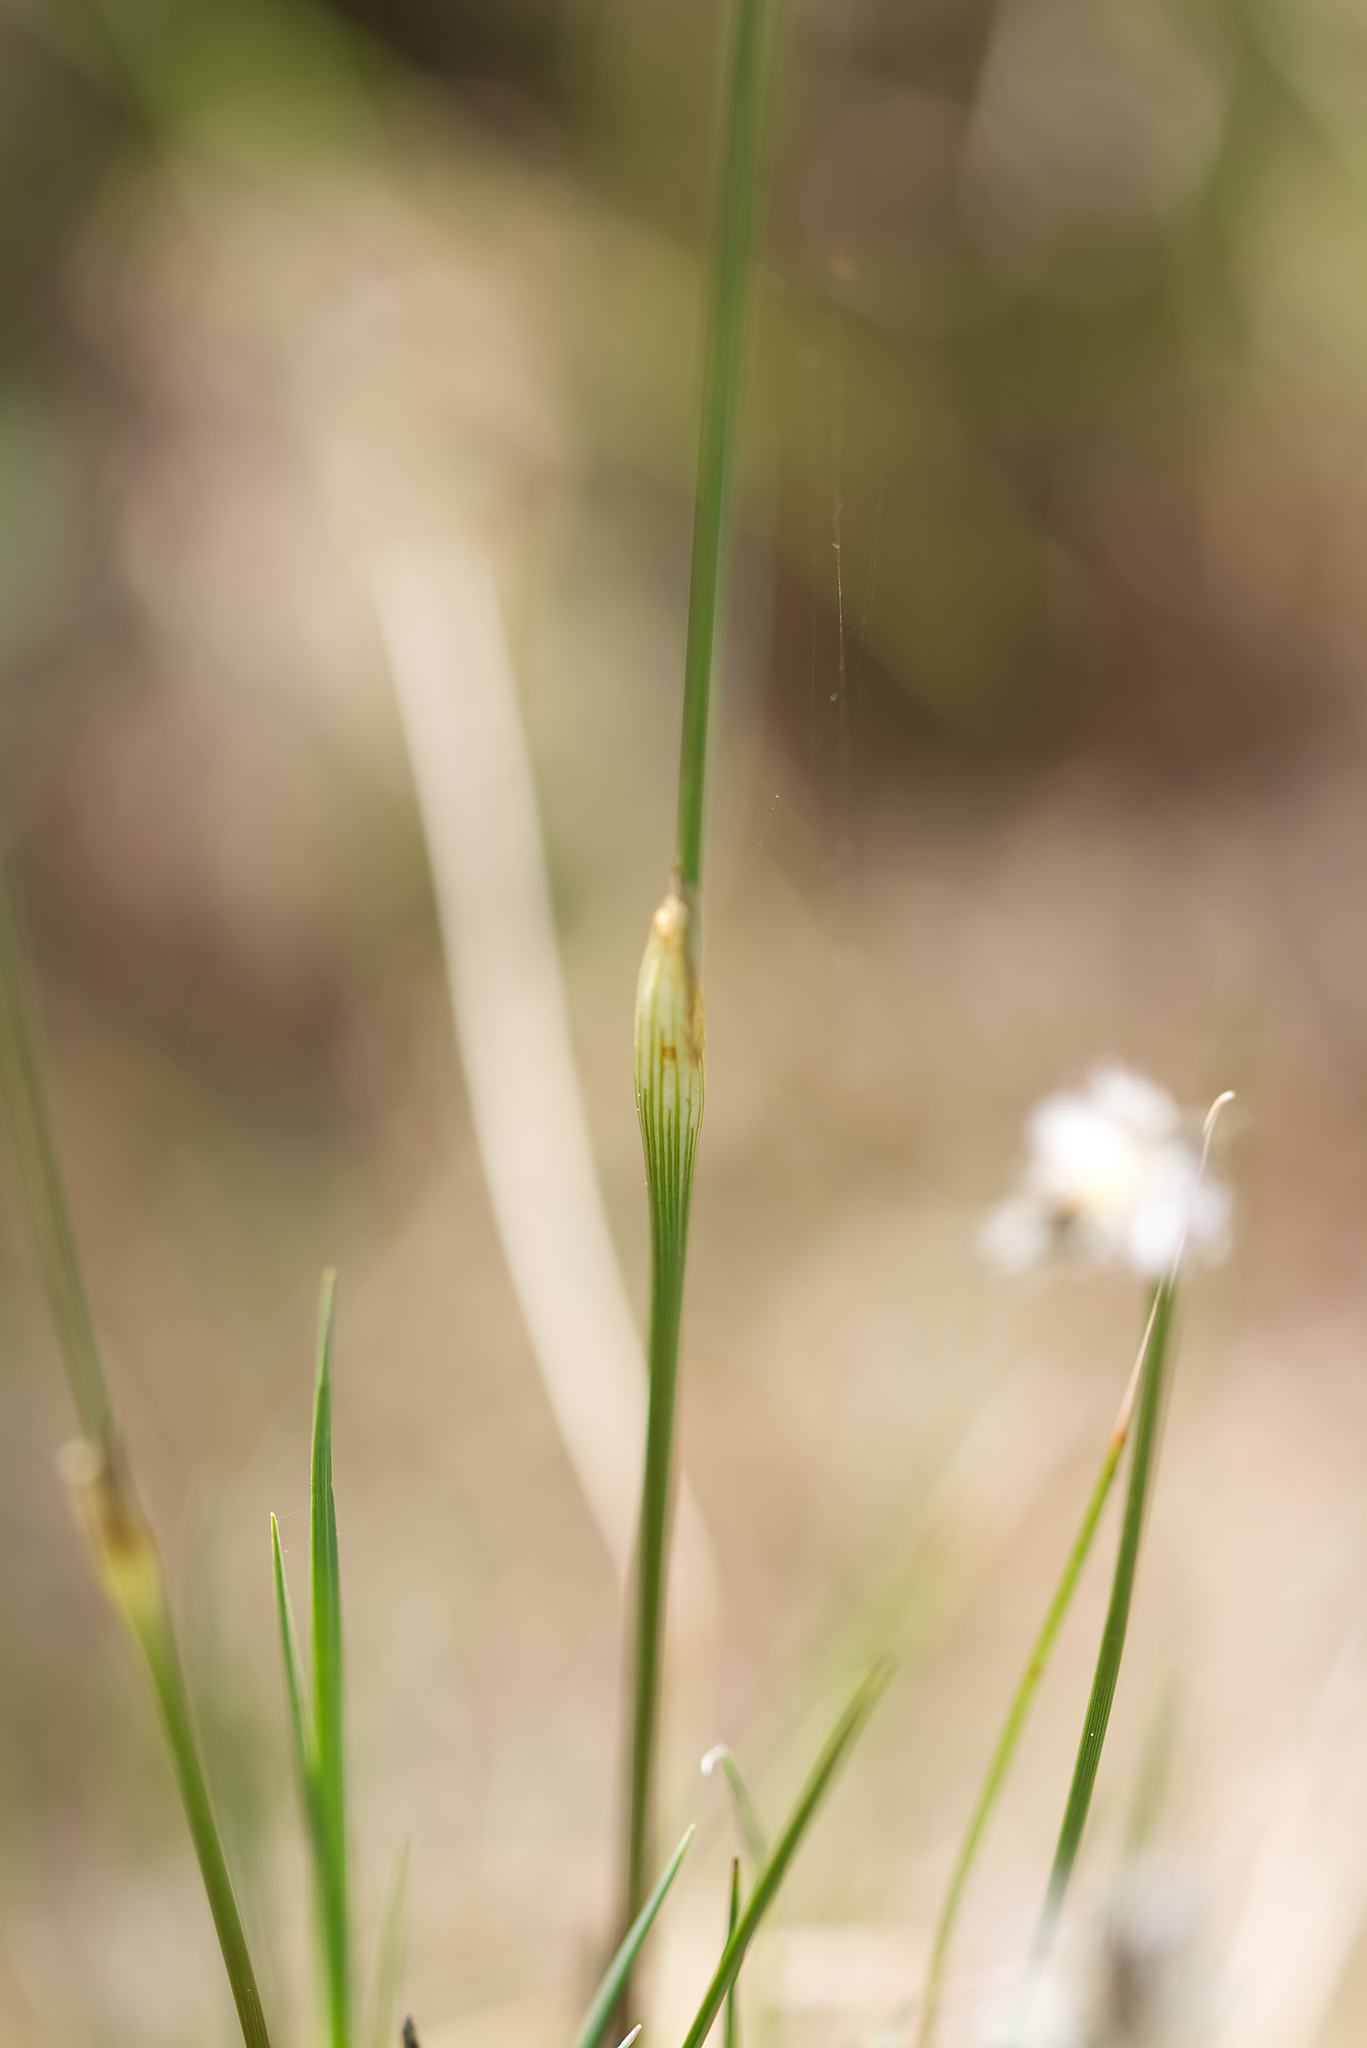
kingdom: Plantae
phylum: Tracheophyta
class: Liliopsida
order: Poales
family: Cyperaceae
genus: Eriophorum
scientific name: Eriophorum vaginatum
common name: Hare's-tail cottongrass
